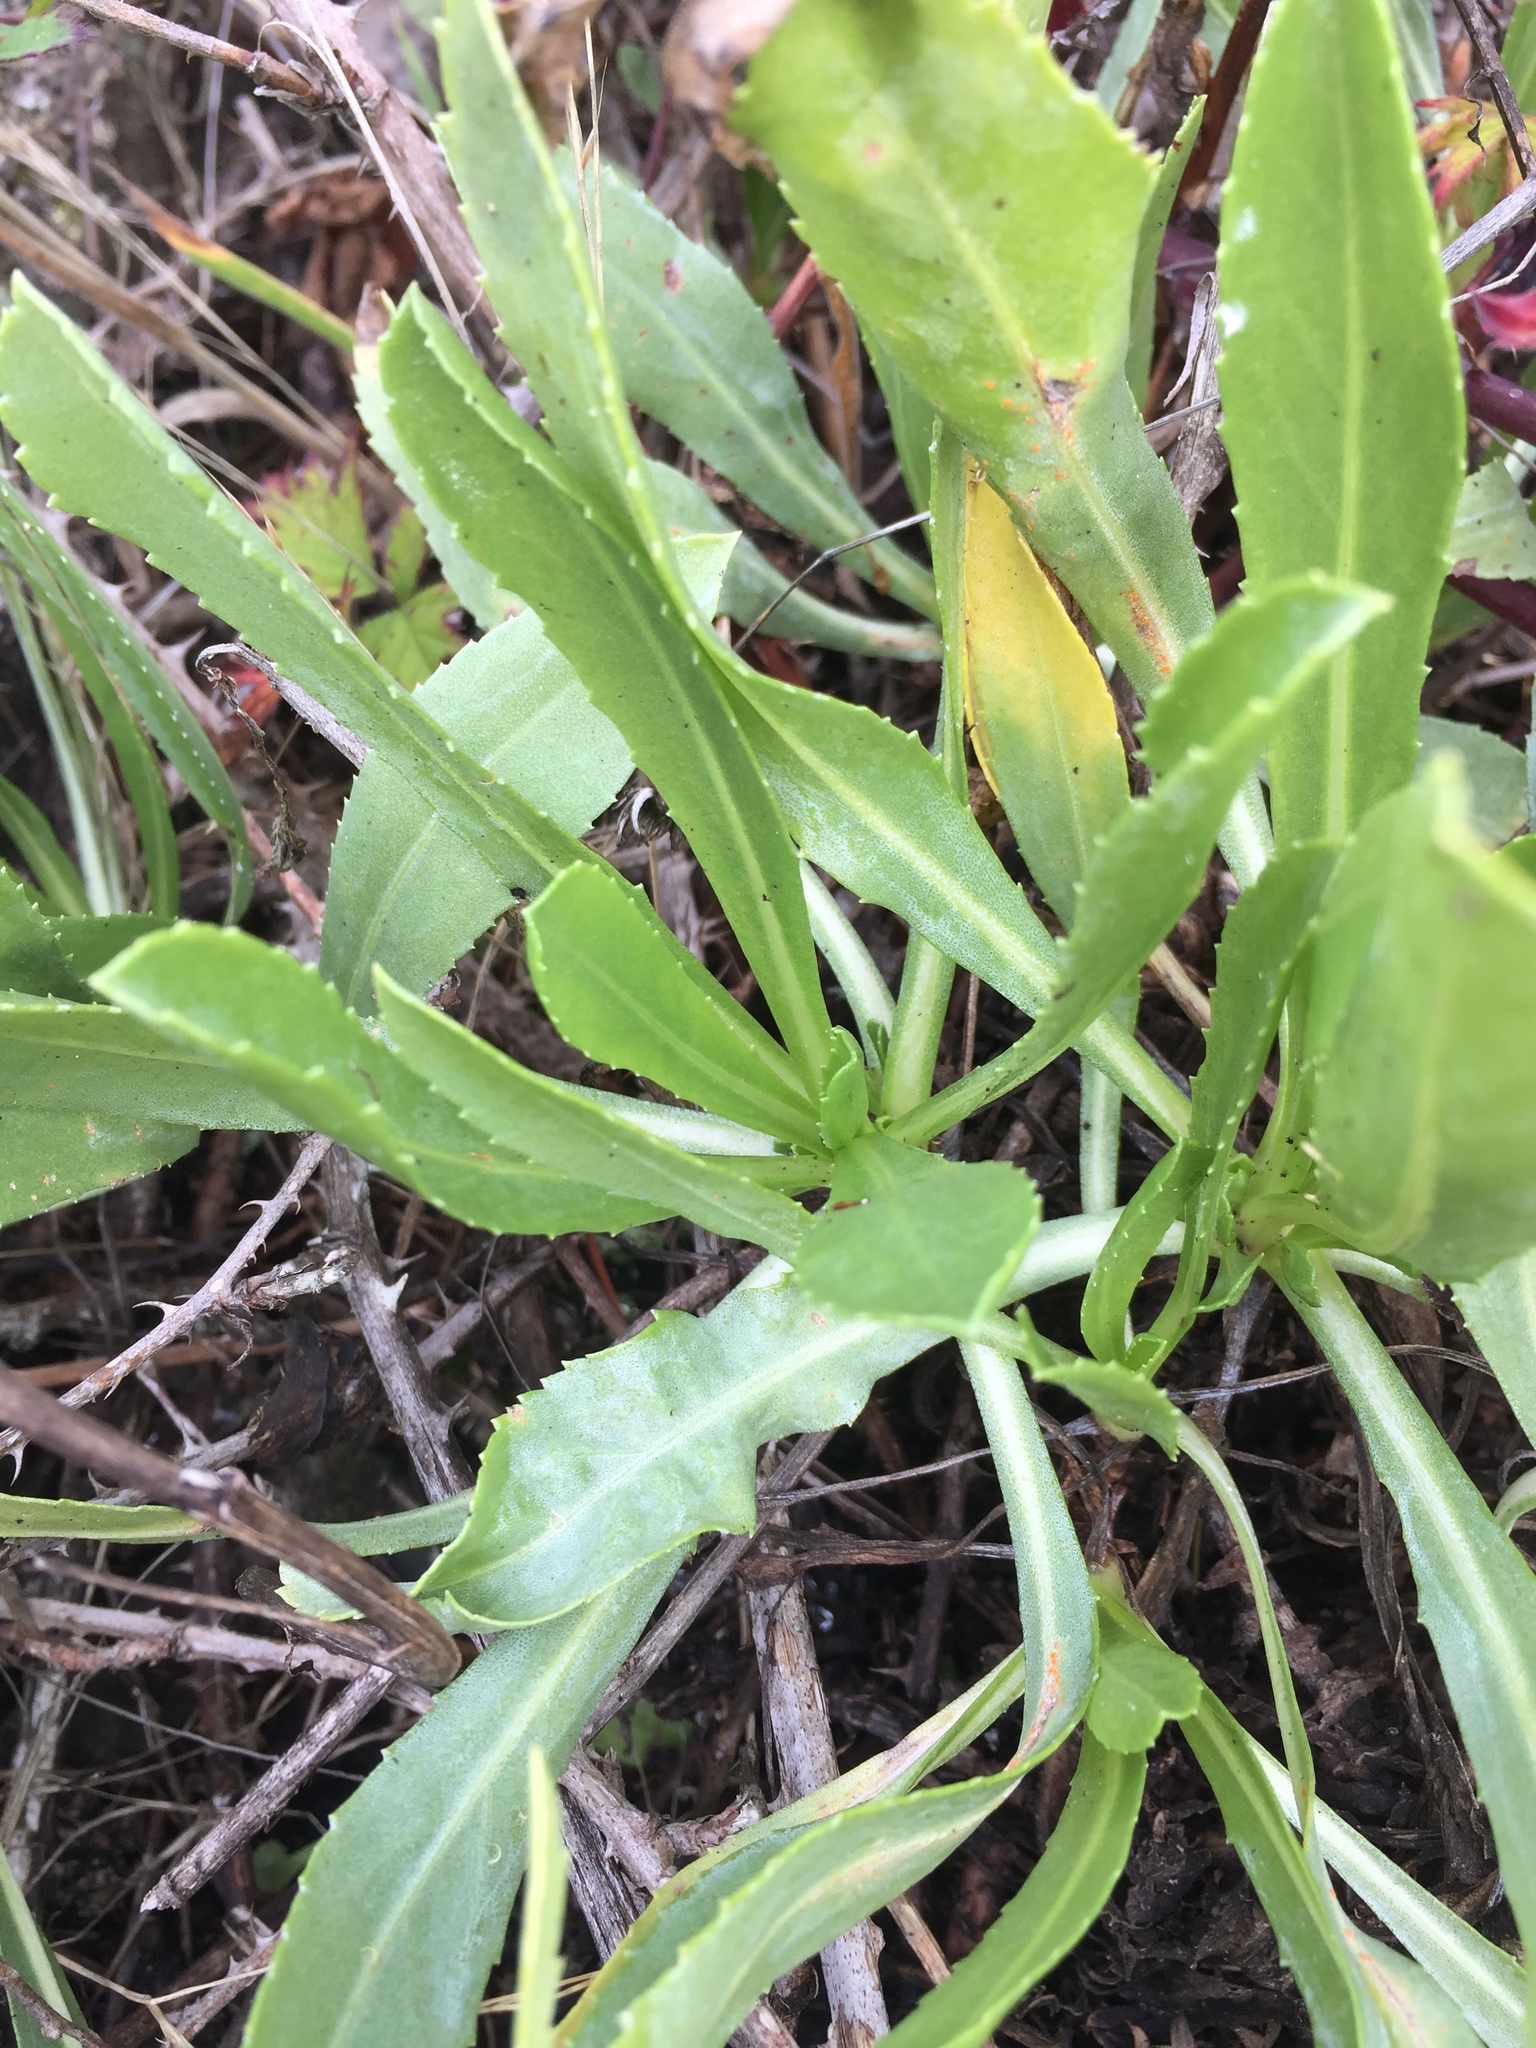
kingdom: Plantae
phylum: Tracheophyta
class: Magnoliopsida
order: Asterales
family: Asteraceae
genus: Grindelia
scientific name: Grindelia hirsutula
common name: Hairy gumweed
